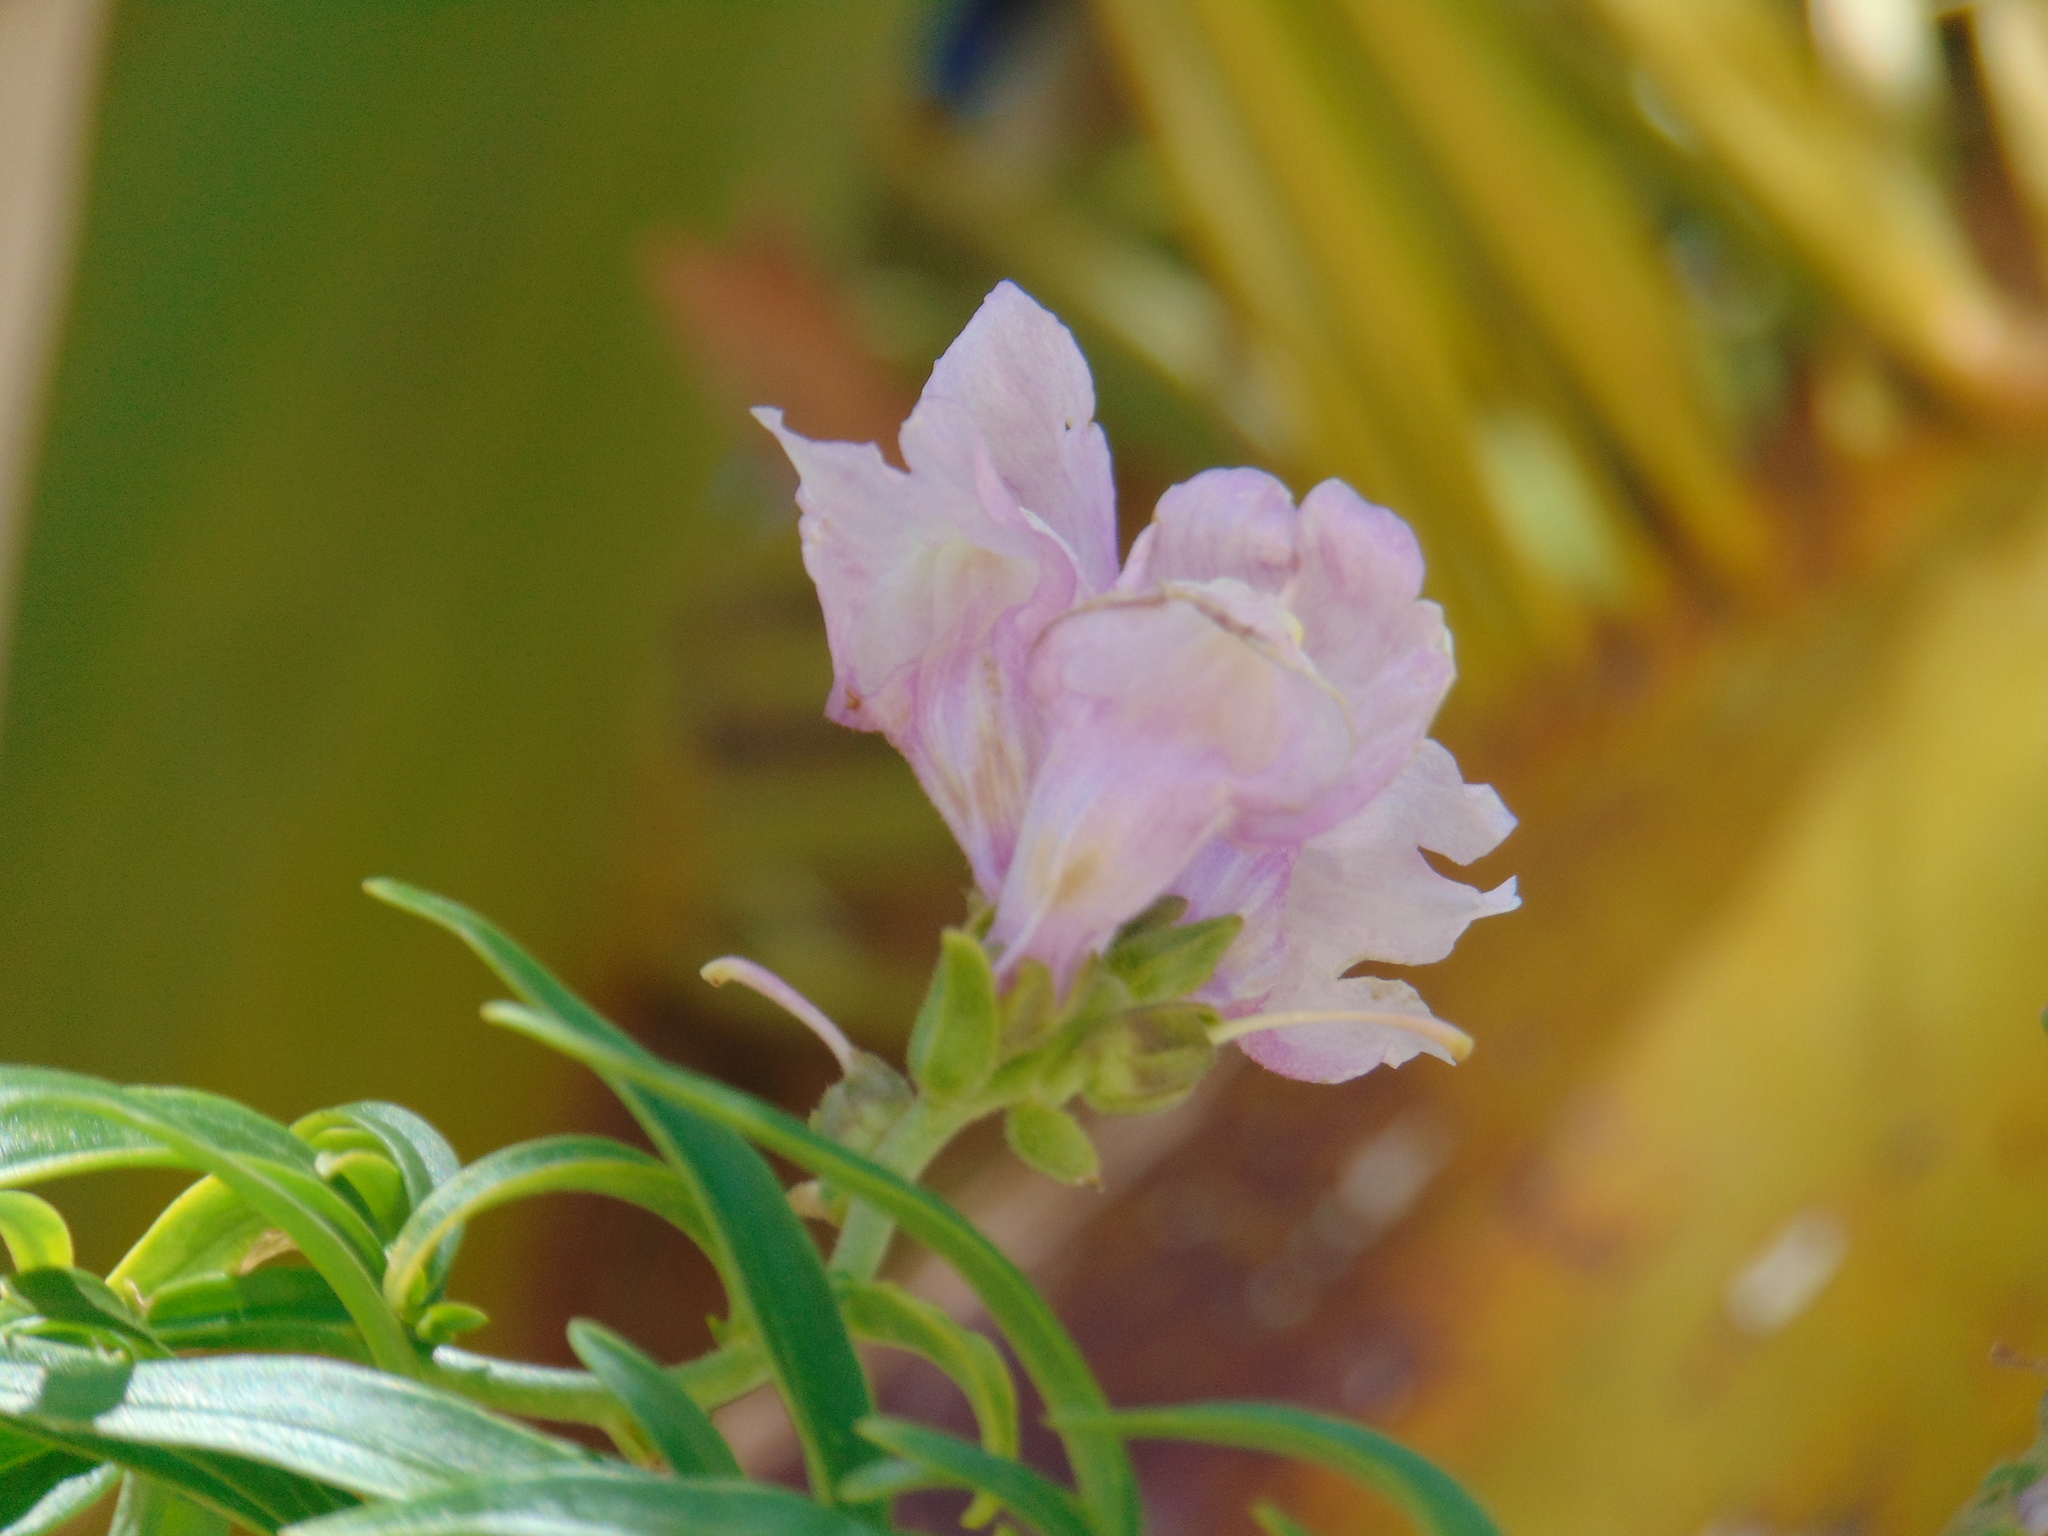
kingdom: Plantae
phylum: Tracheophyta
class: Magnoliopsida
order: Lamiales
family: Plantaginaceae
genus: Antirrhinum
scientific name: Antirrhinum majus
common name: Snapdragon
